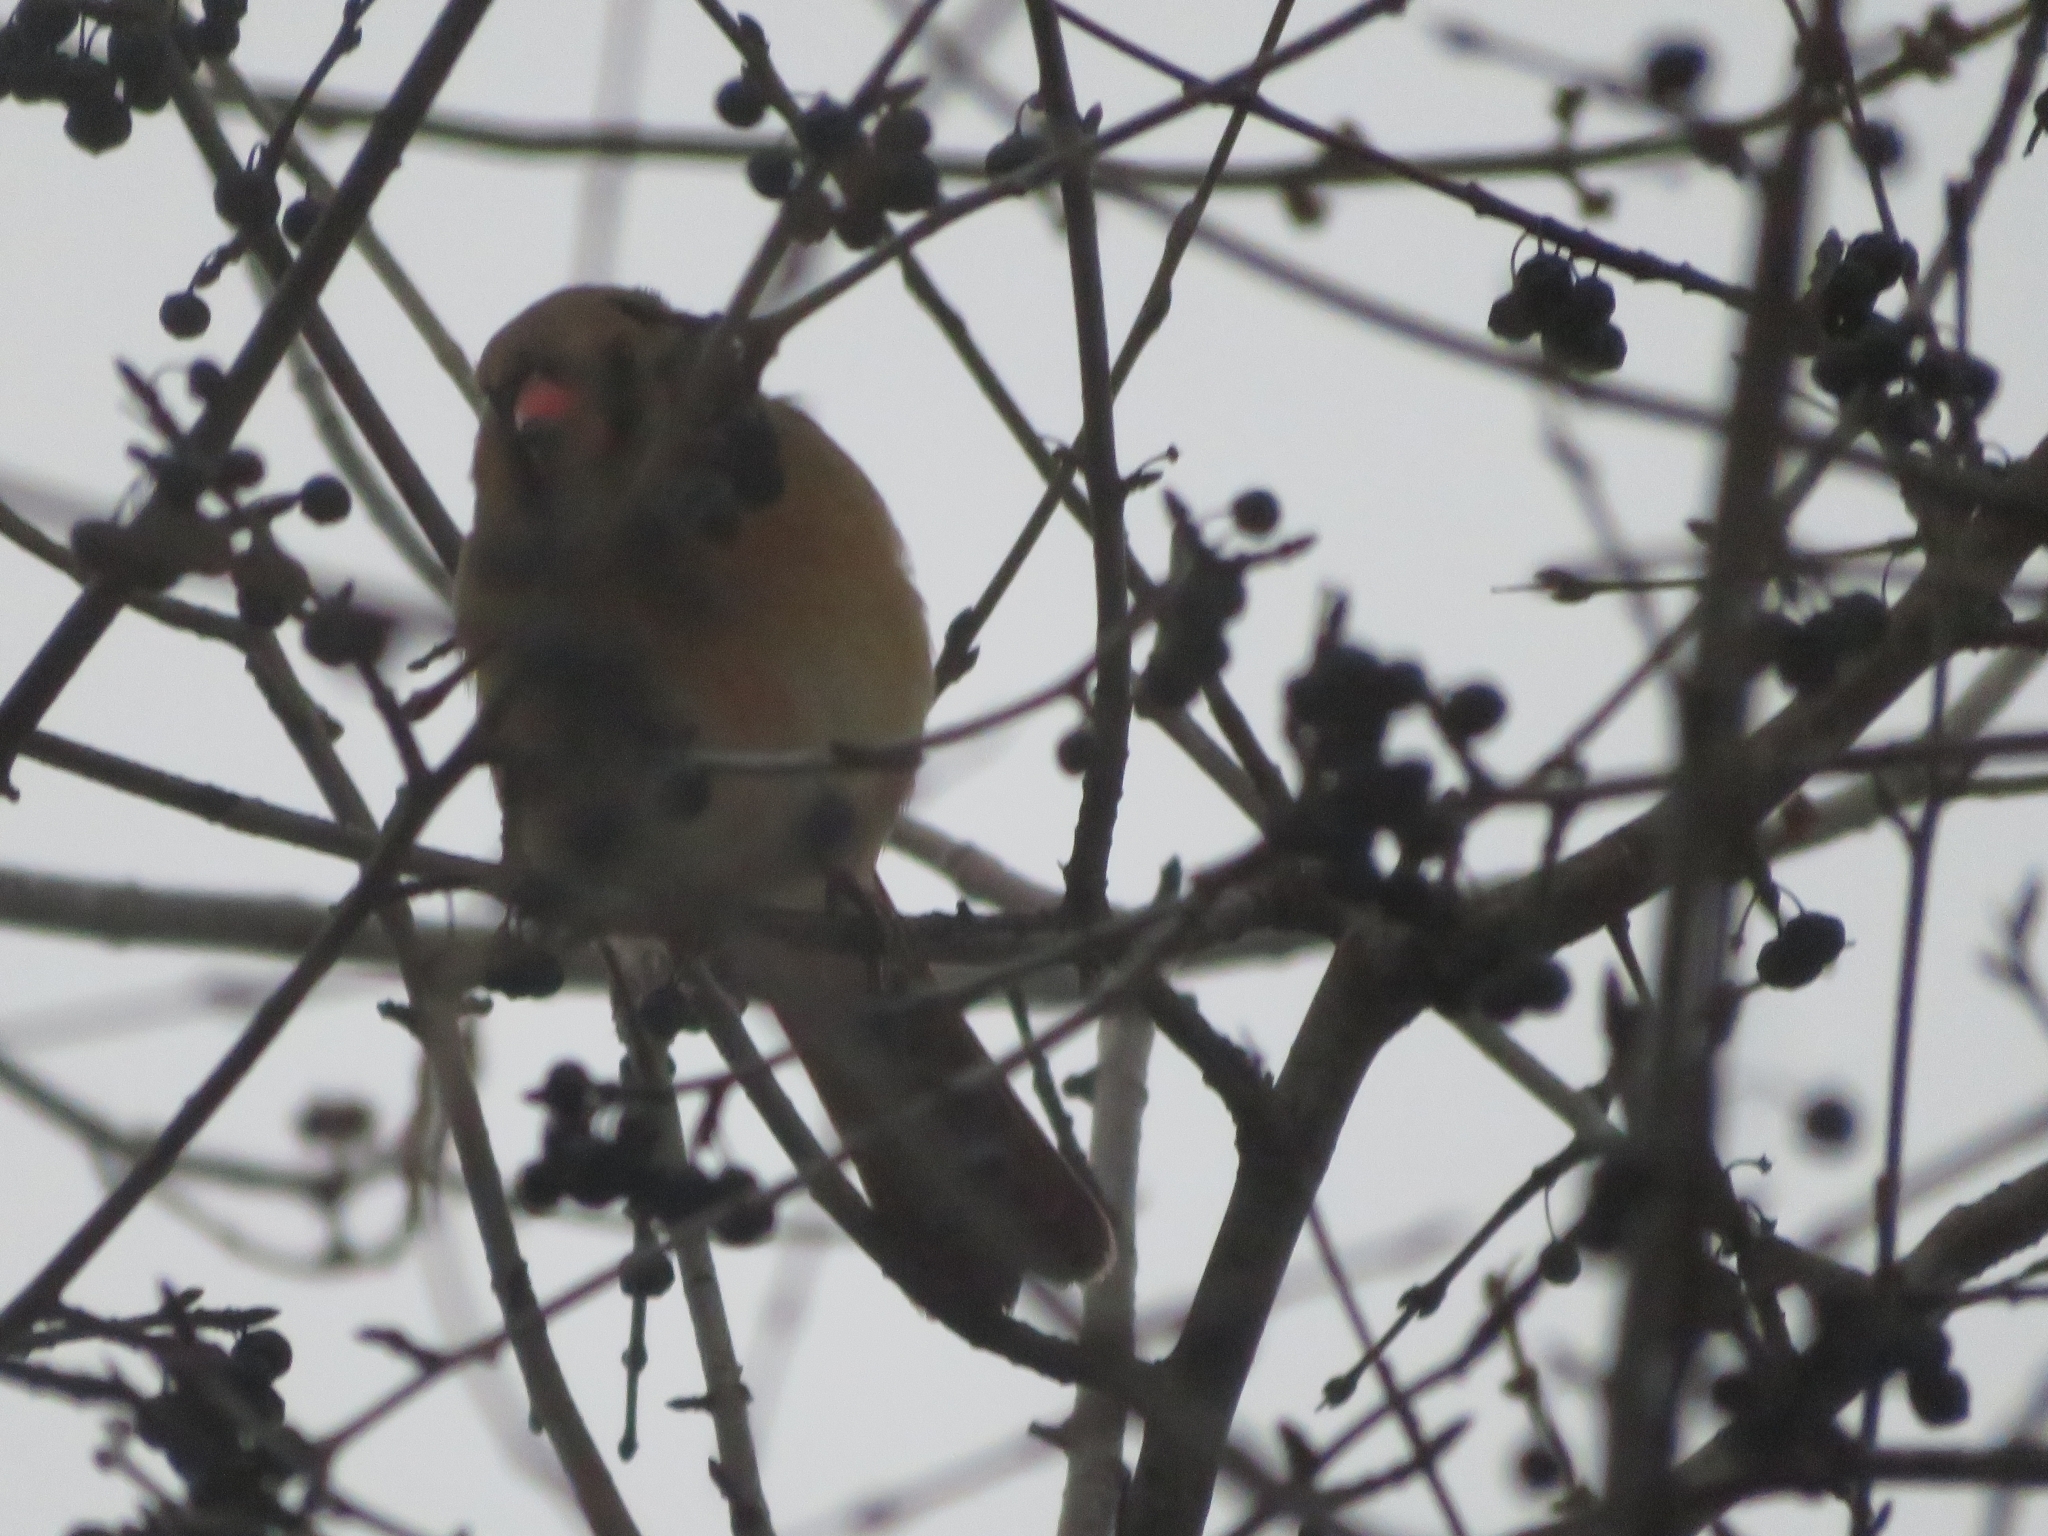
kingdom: Animalia
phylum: Chordata
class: Aves
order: Passeriformes
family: Cardinalidae
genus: Cardinalis
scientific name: Cardinalis cardinalis
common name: Northern cardinal
